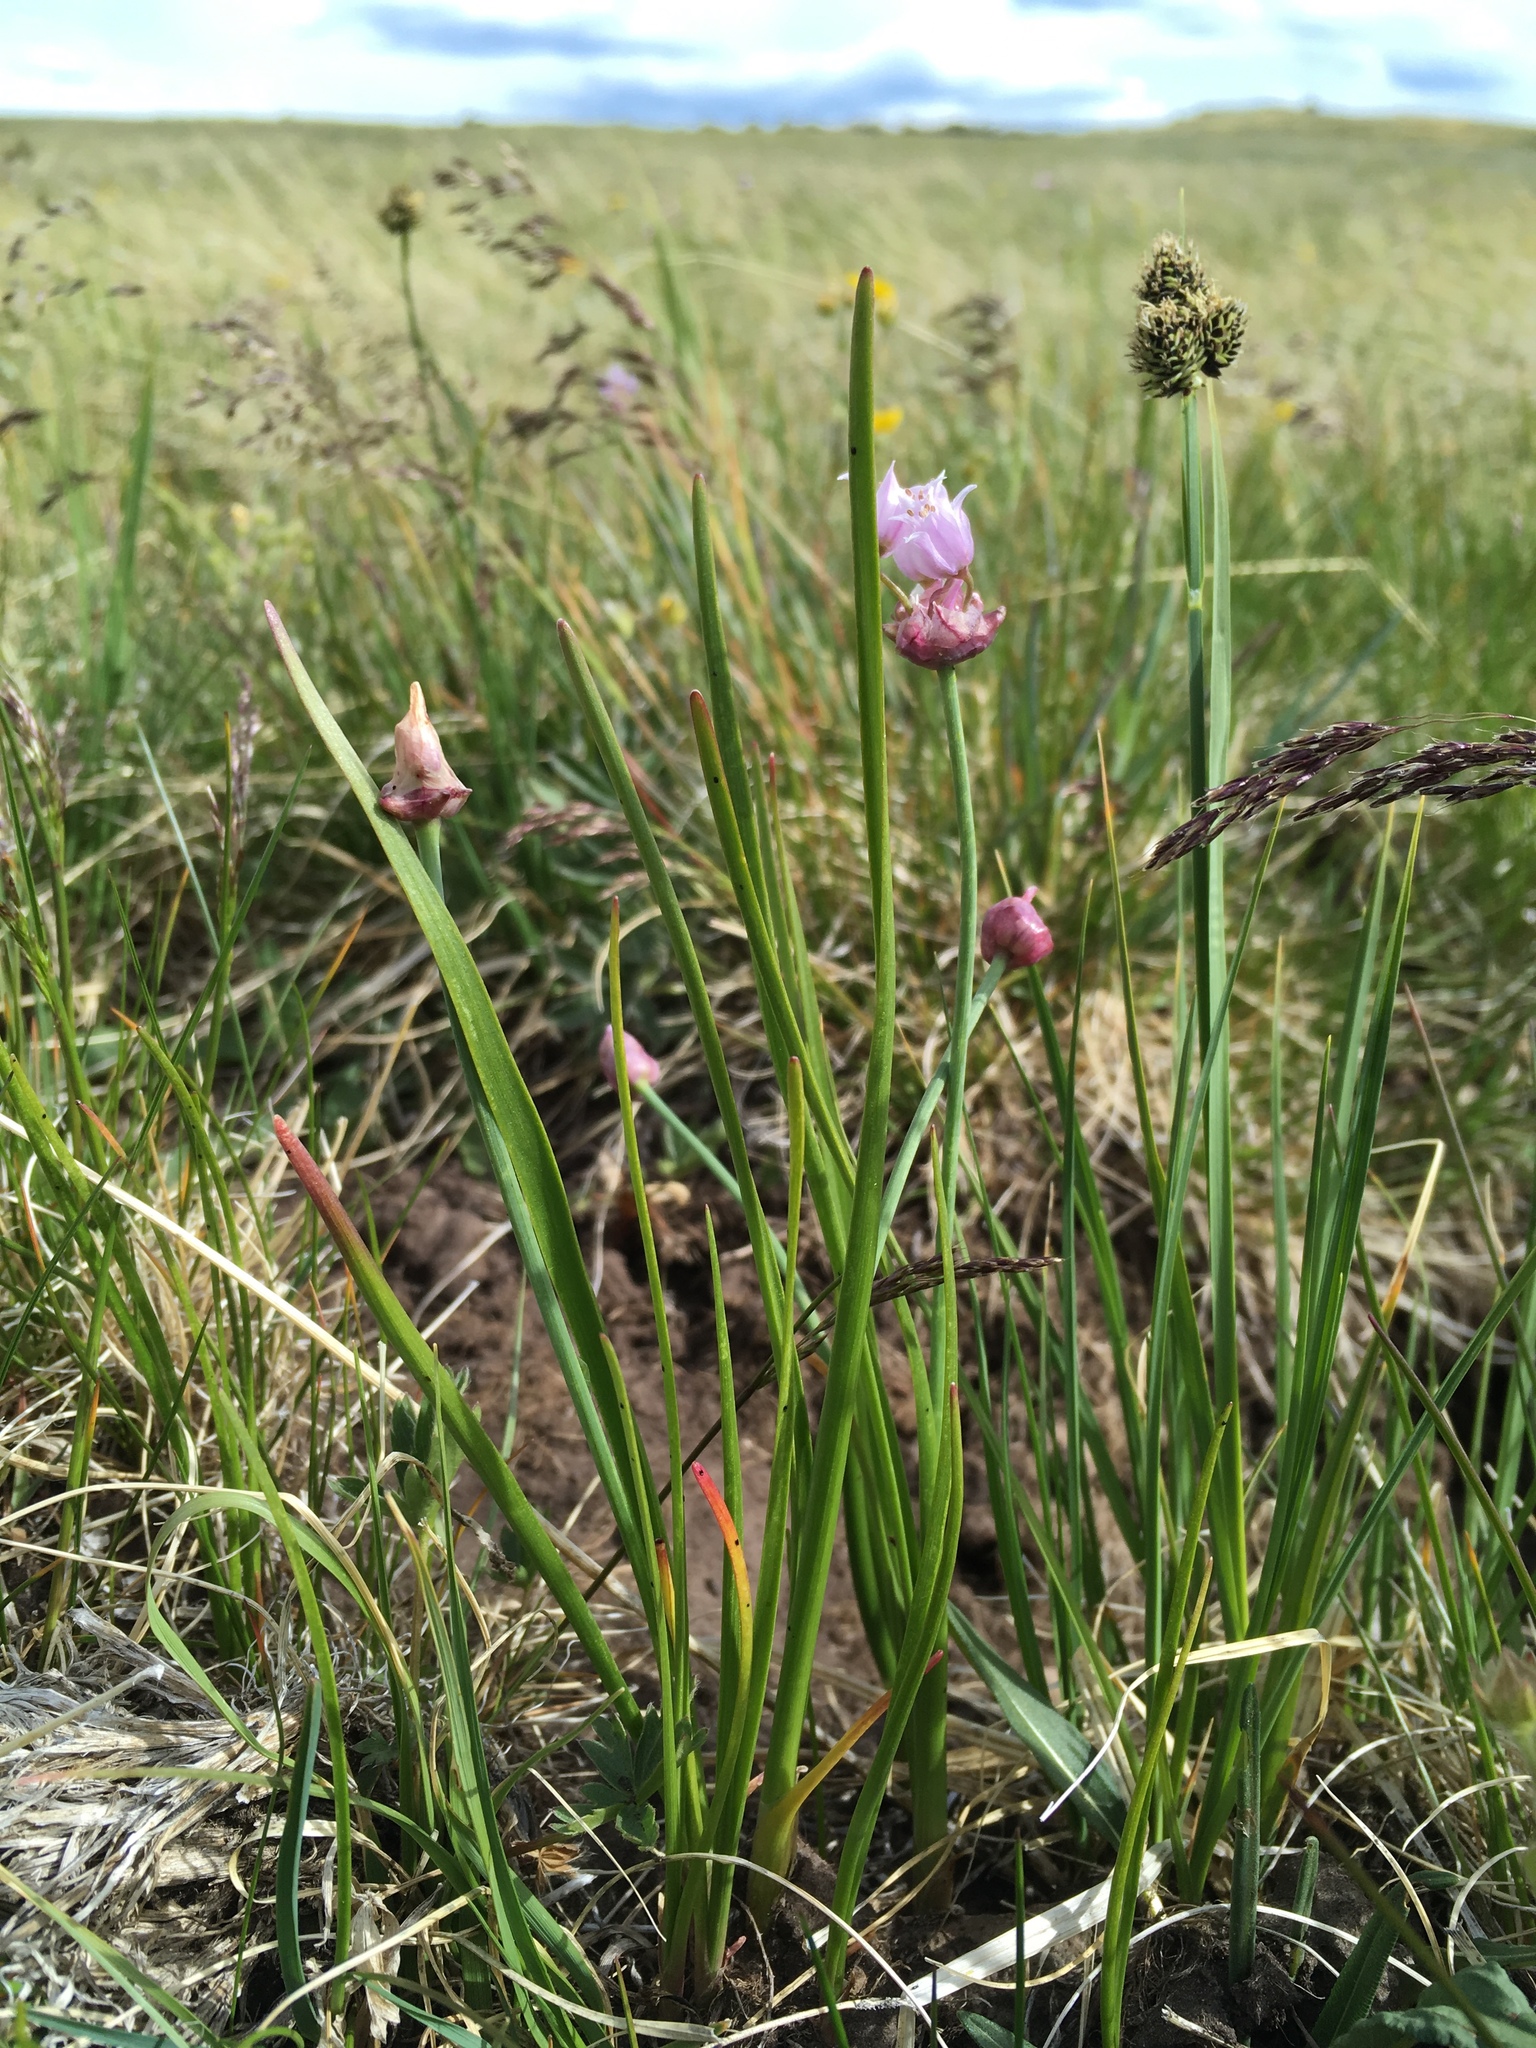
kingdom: Plantae
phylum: Tracheophyta
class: Liliopsida
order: Asparagales
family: Amaryllidaceae
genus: Allium
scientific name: Allium geyeri
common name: Geyer's onion
